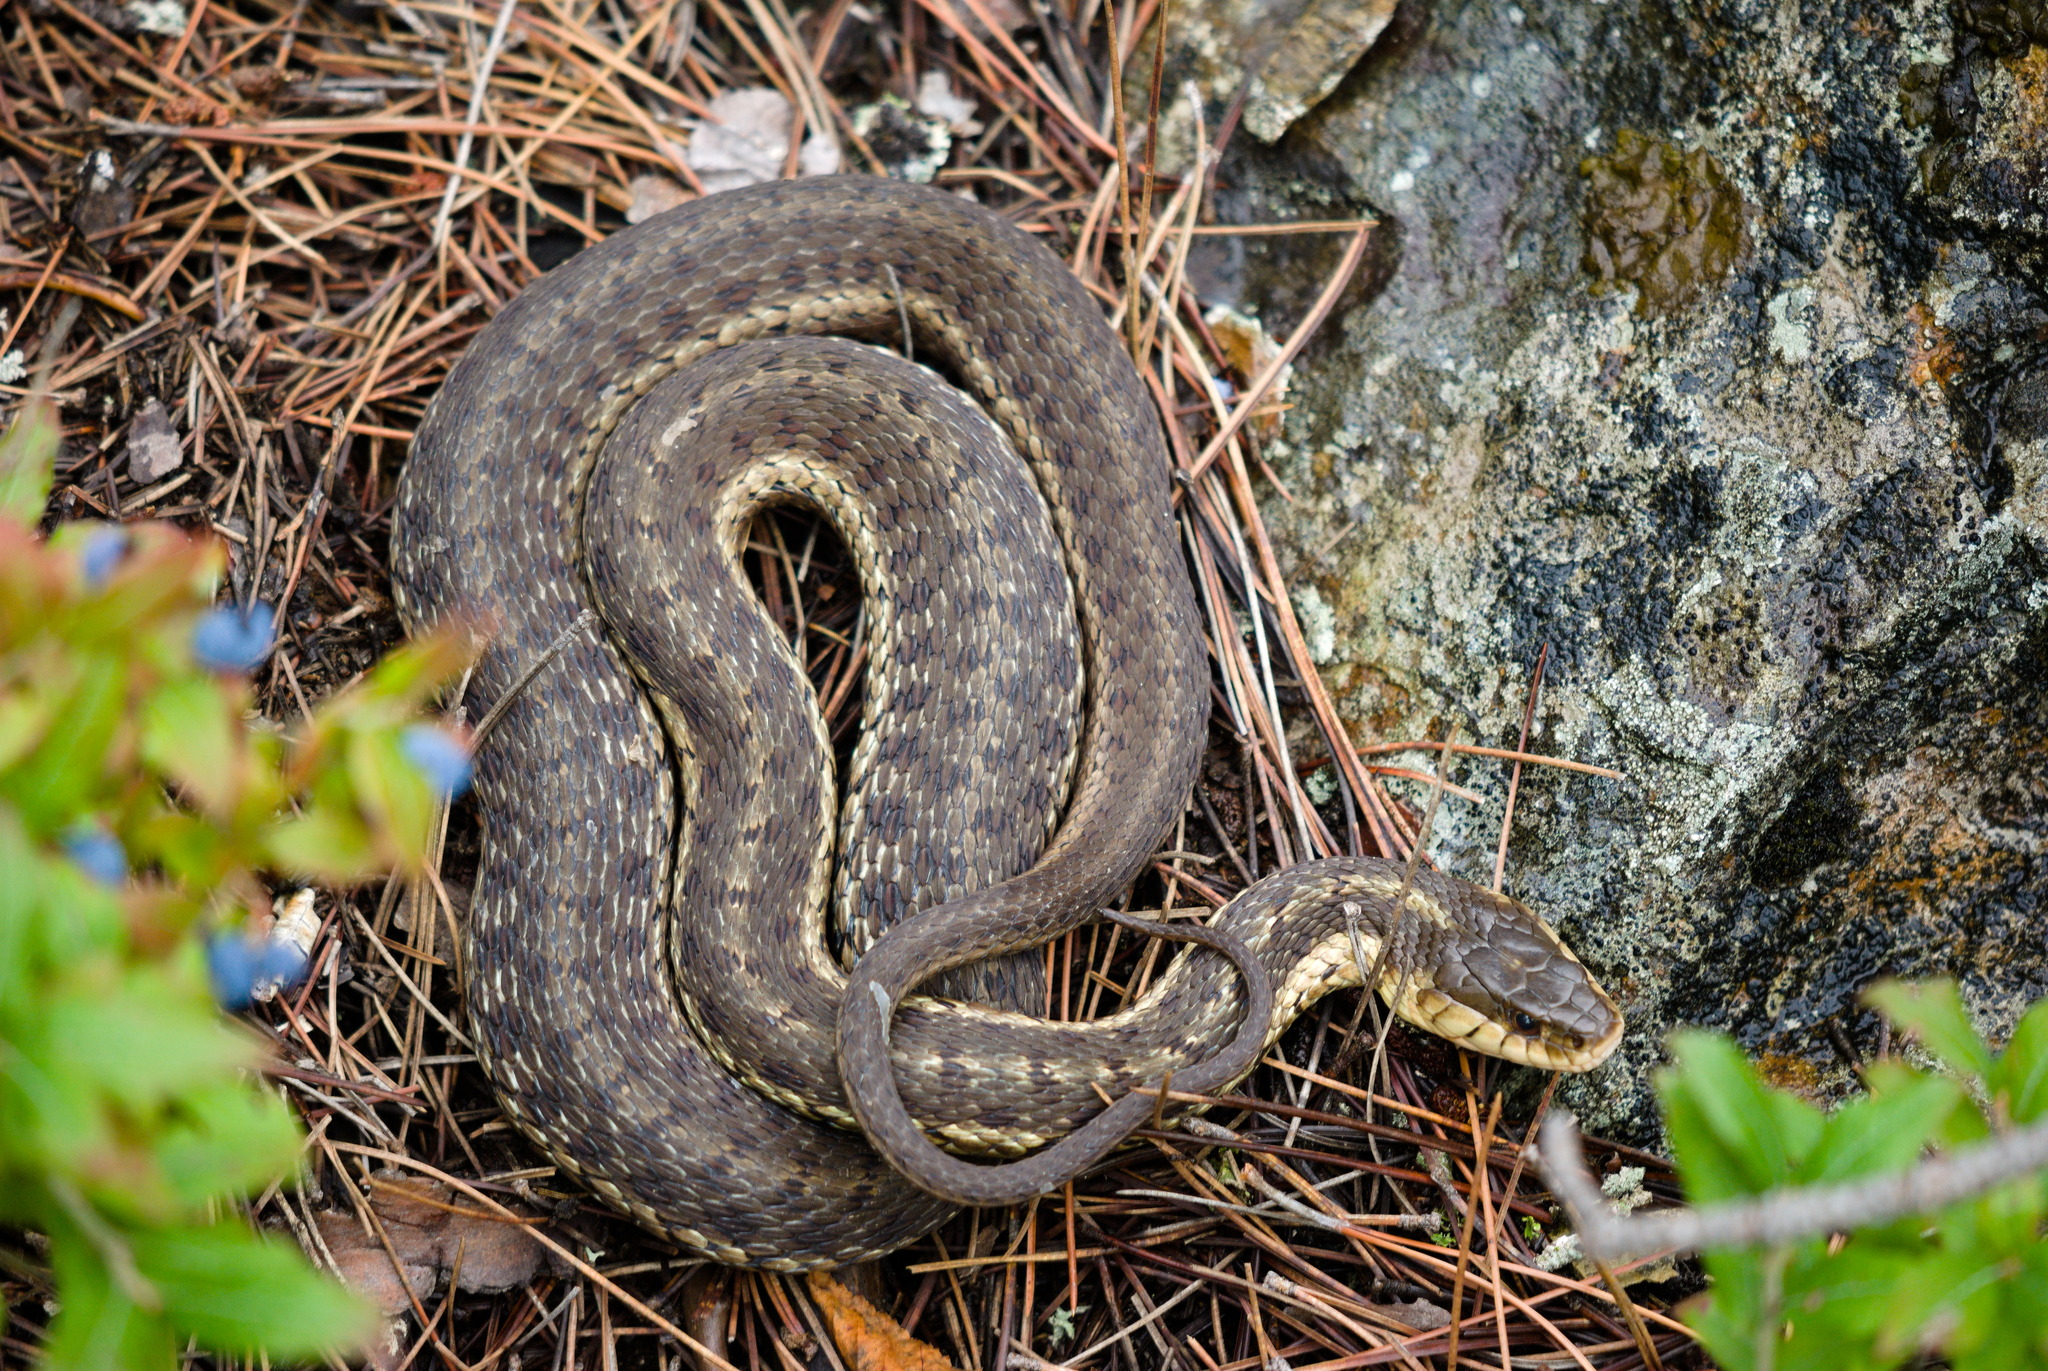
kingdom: Animalia
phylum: Chordata
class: Squamata
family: Colubridae
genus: Thamnophis
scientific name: Thamnophis sirtalis
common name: Common garter snake
